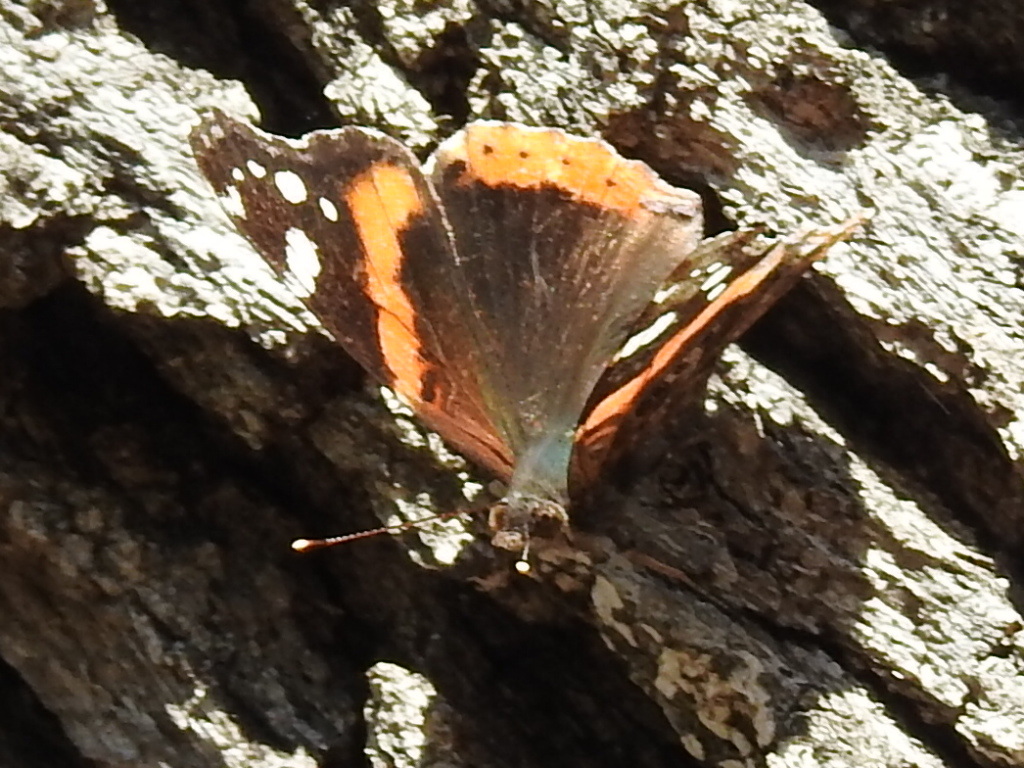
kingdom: Animalia
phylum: Arthropoda
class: Insecta
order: Lepidoptera
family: Nymphalidae
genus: Vanessa
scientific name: Vanessa atalanta
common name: Red admiral
